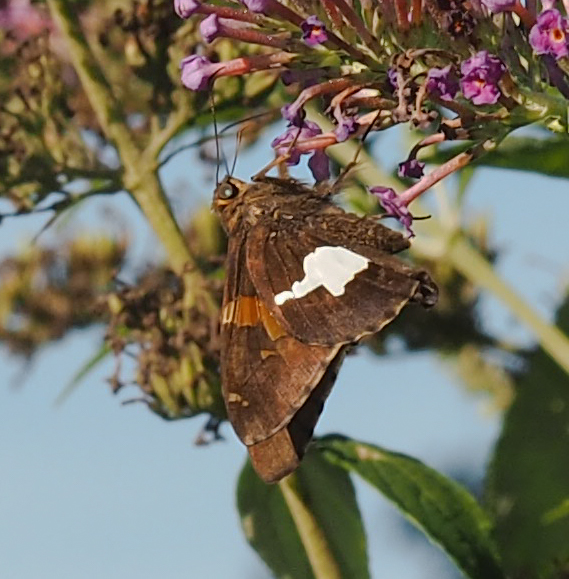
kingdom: Animalia
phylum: Arthropoda
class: Insecta
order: Lepidoptera
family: Hesperiidae
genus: Epargyreus
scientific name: Epargyreus clarus
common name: Silver-spotted skipper
